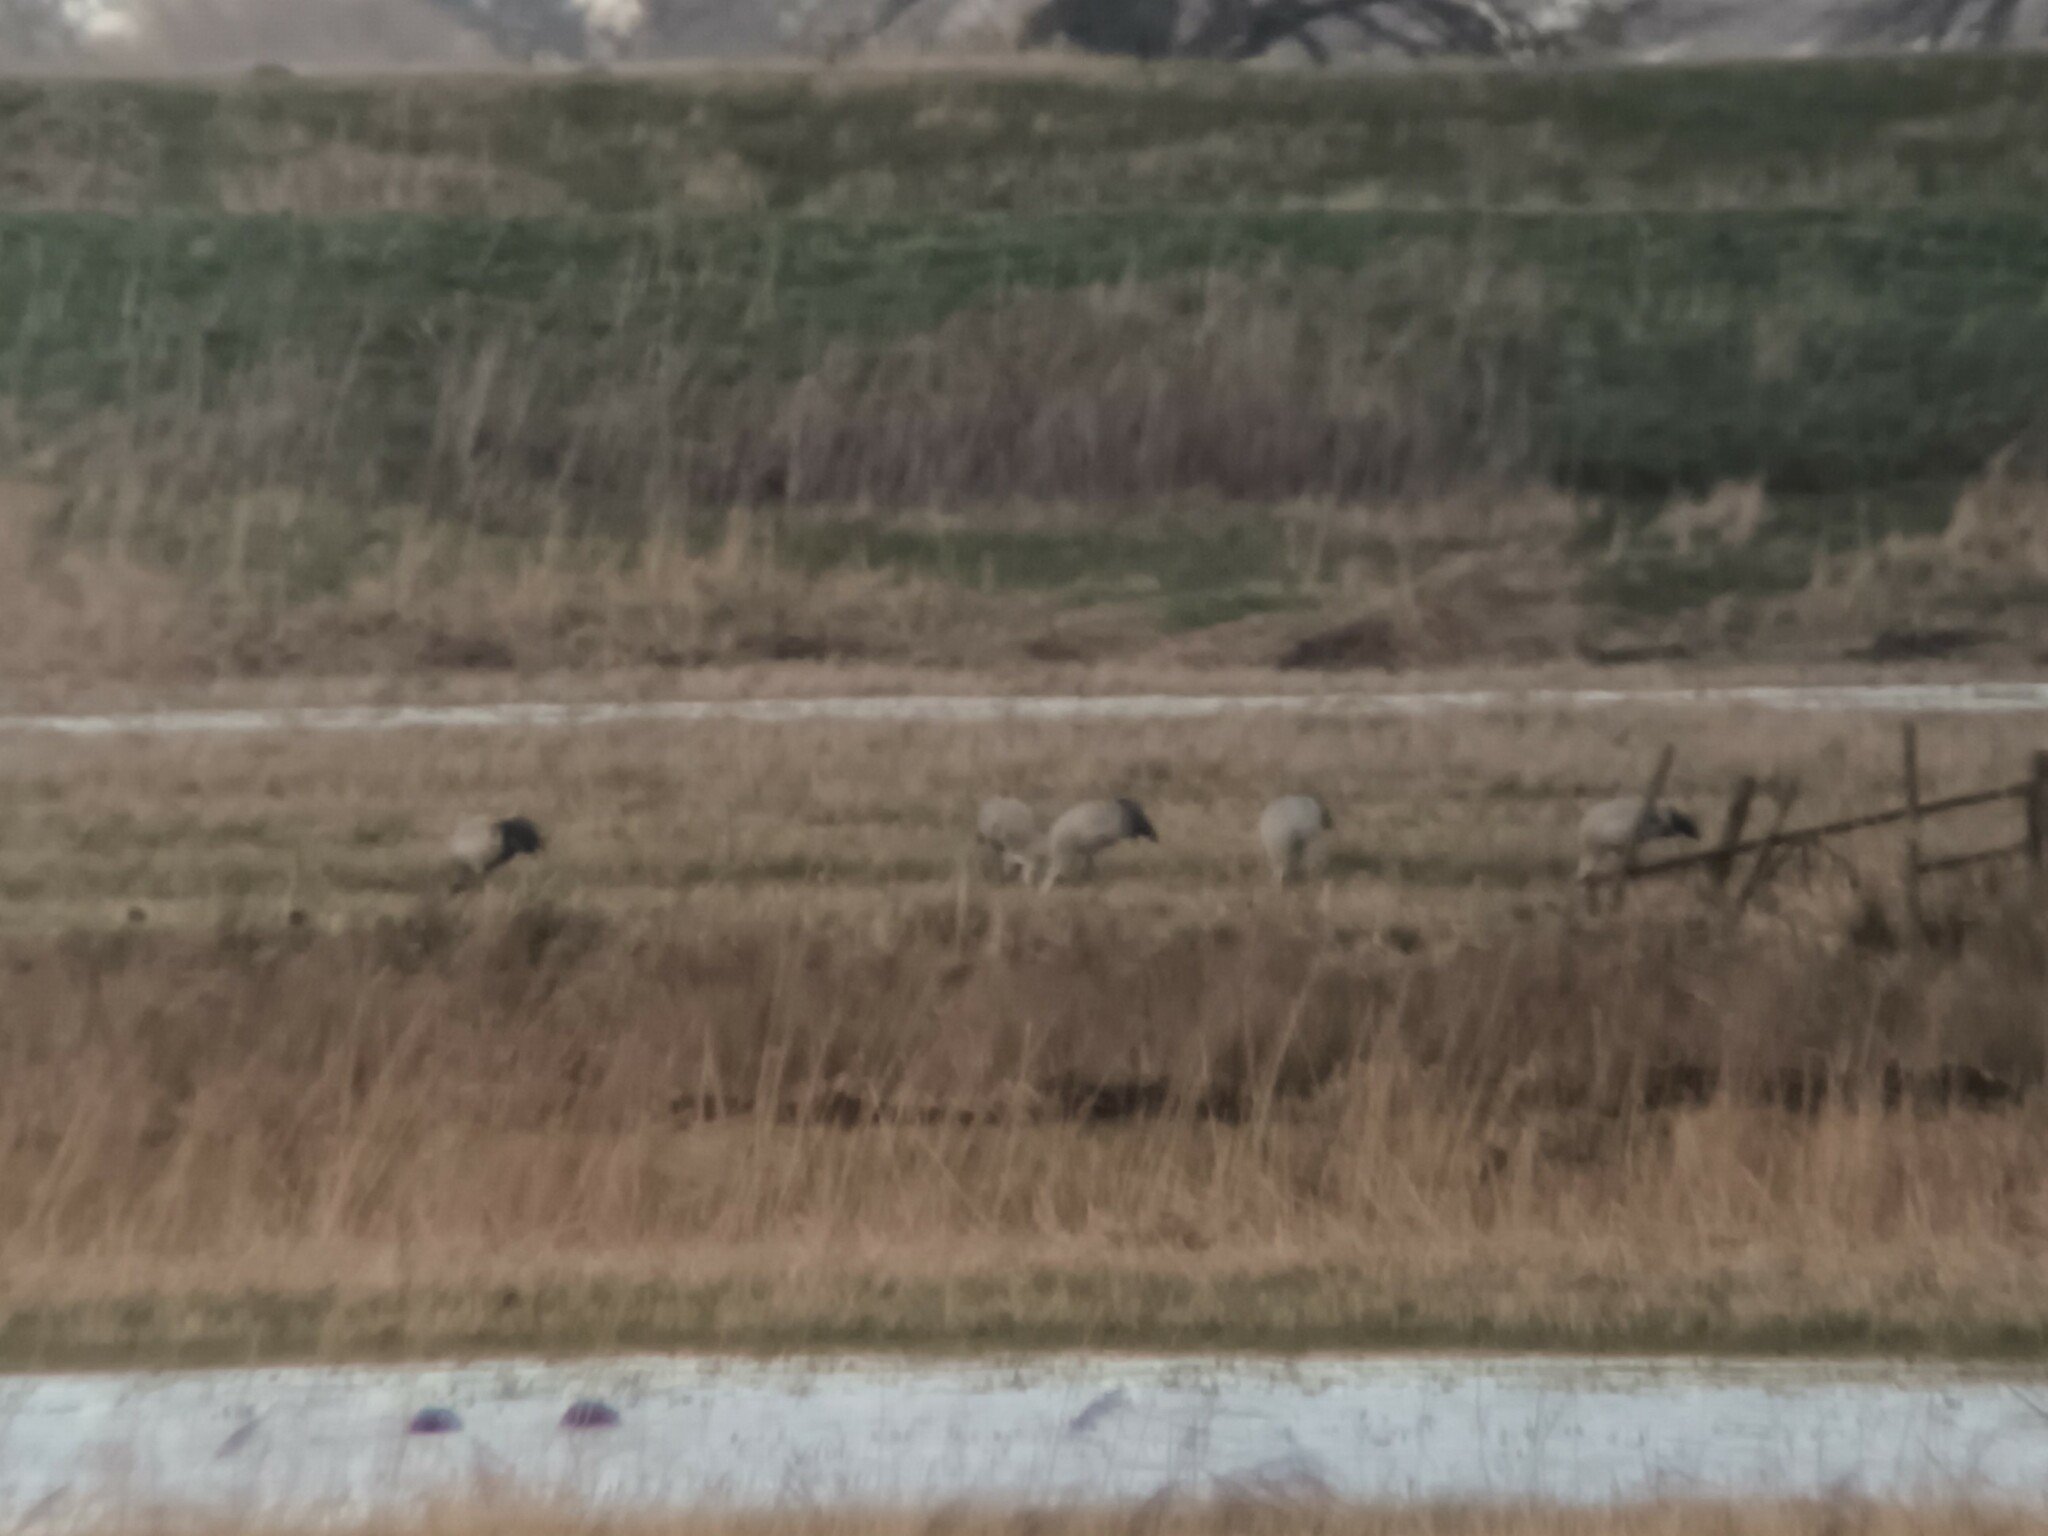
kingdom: Animalia
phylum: Chordata
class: Aves
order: Gruiformes
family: Gruidae
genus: Grus
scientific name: Grus grus
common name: Common crane
